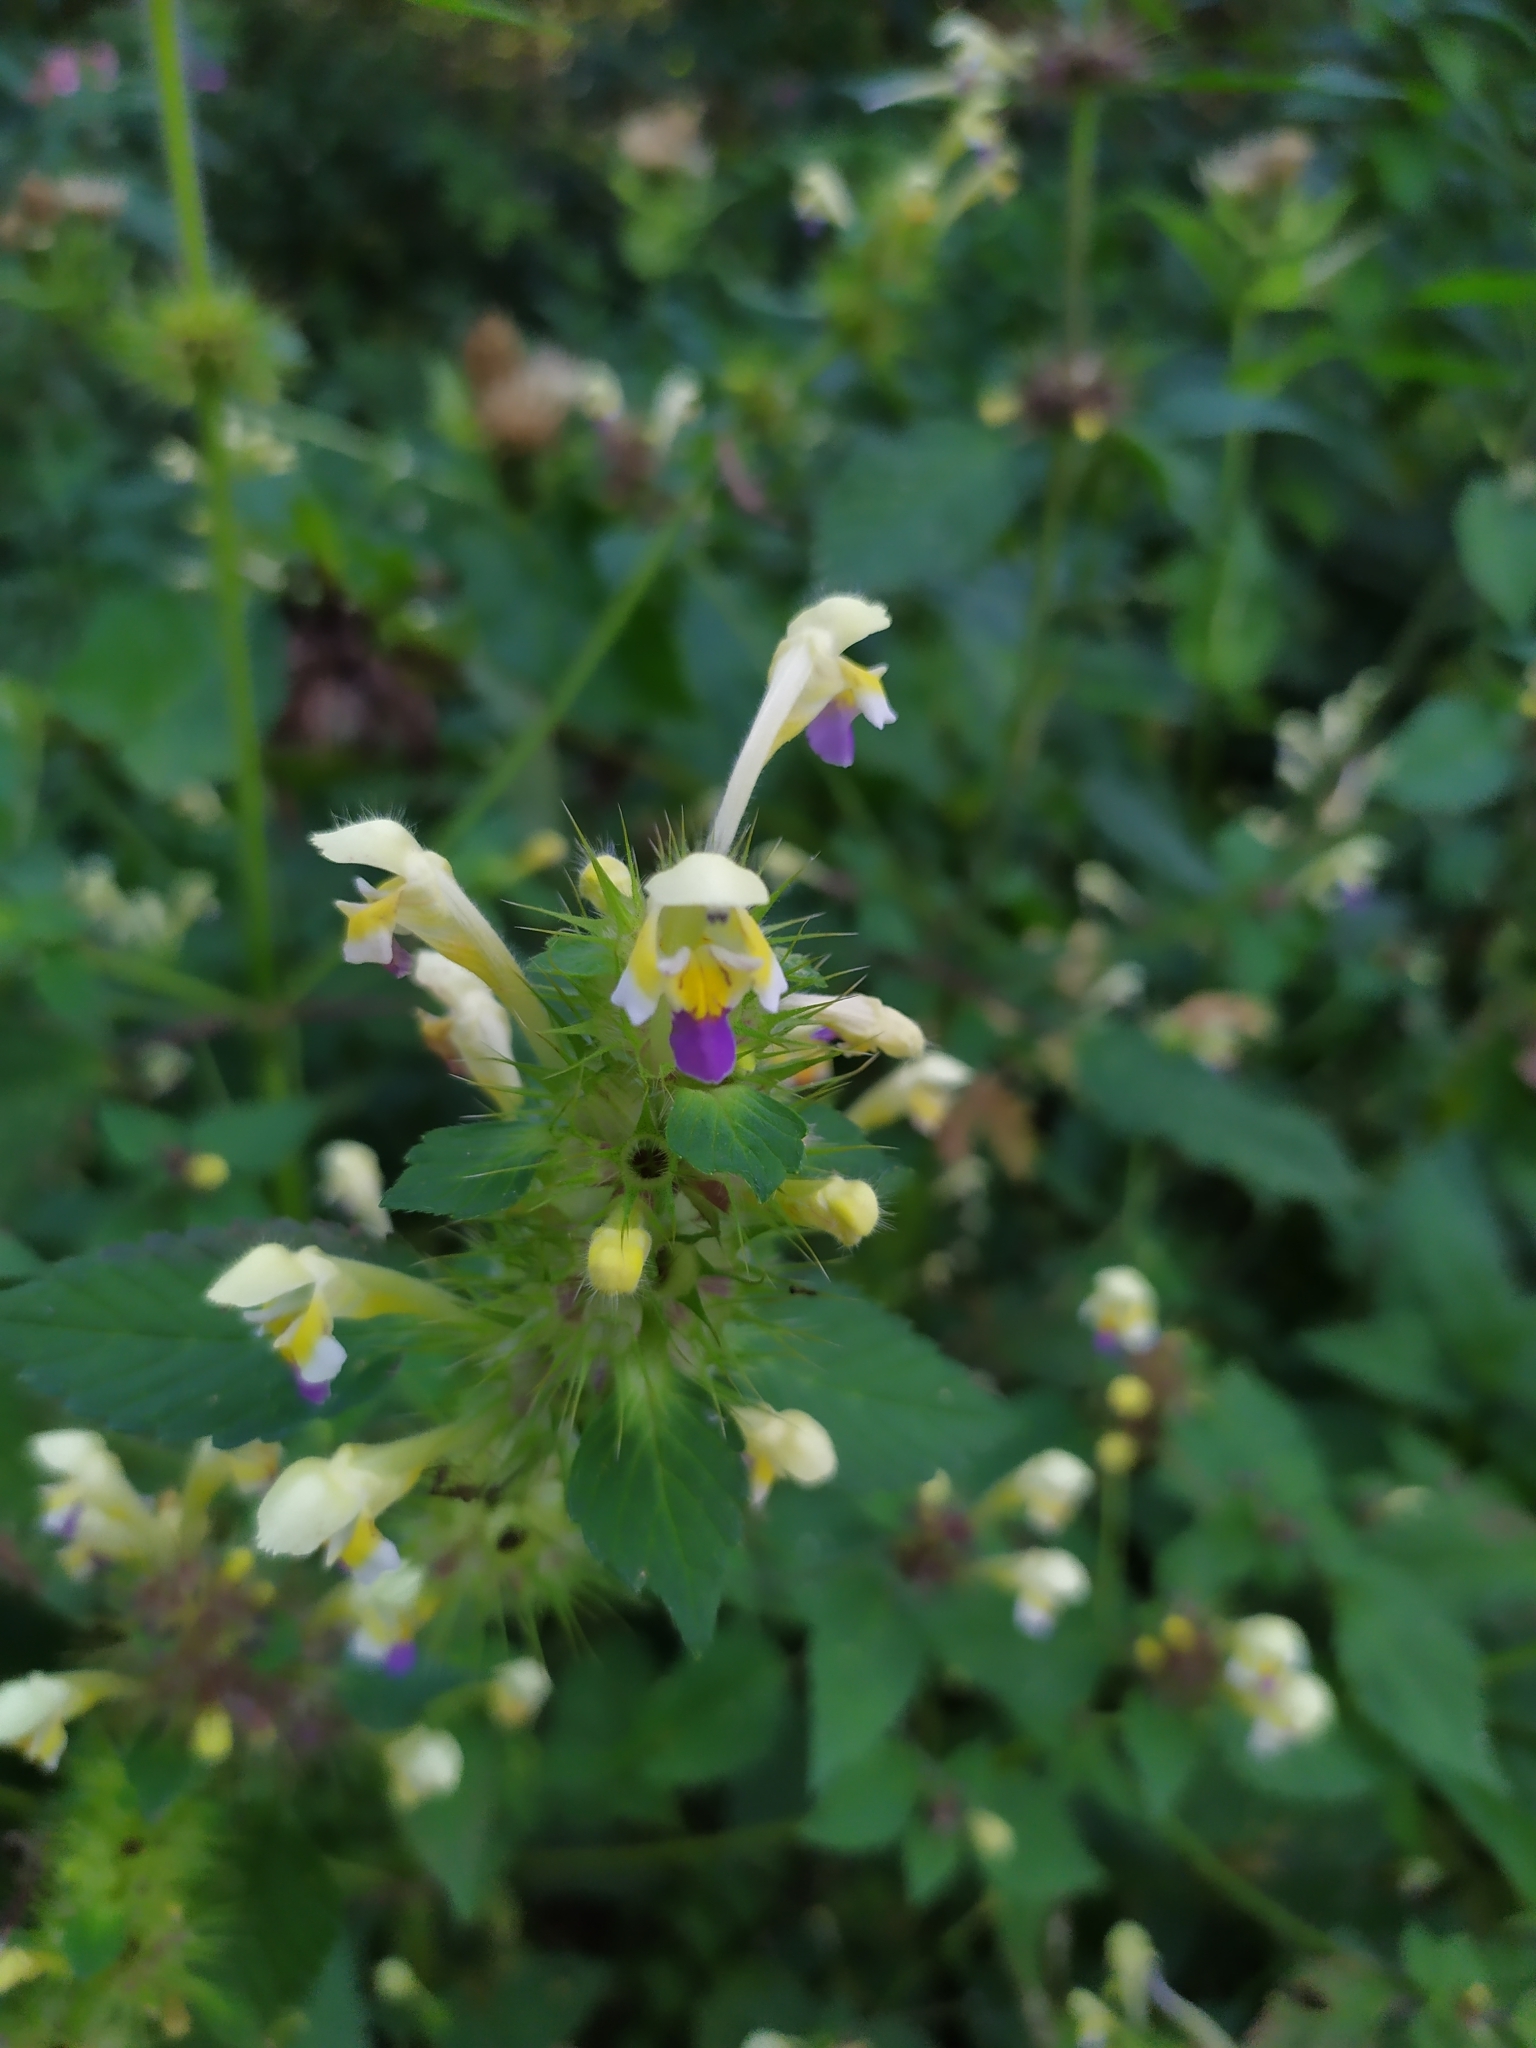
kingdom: Plantae
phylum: Tracheophyta
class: Magnoliopsida
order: Lamiales
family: Lamiaceae
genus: Galeopsis
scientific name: Galeopsis speciosa
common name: Large-flowered hemp-nettle
